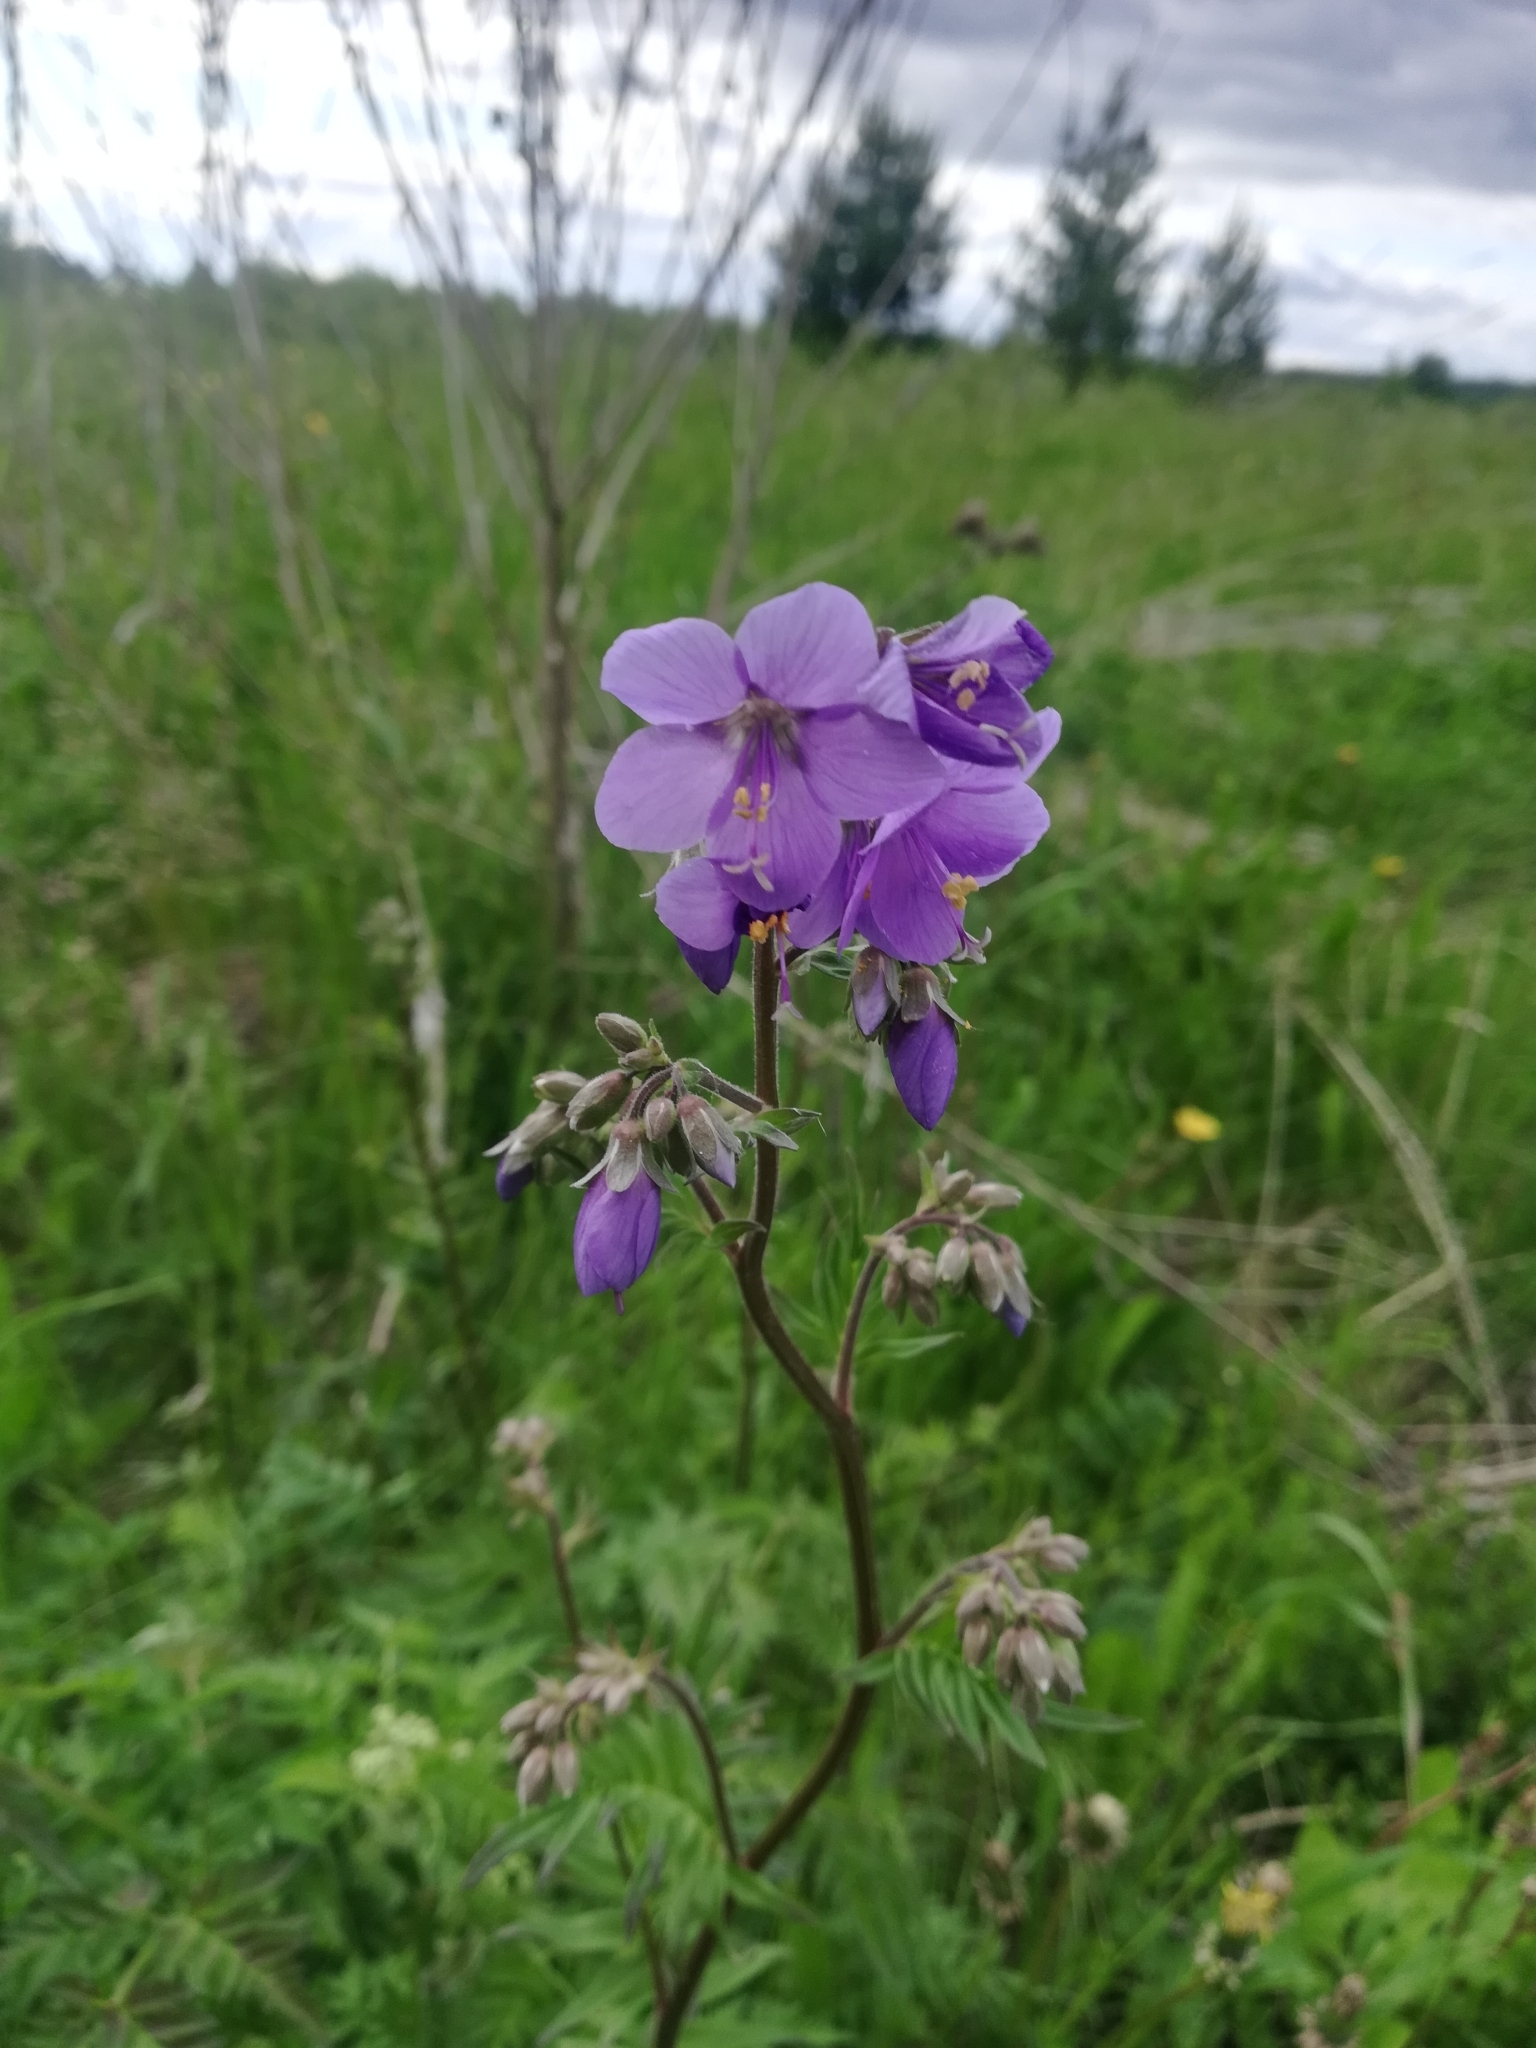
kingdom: Plantae
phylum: Tracheophyta
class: Magnoliopsida
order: Ericales
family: Polemoniaceae
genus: Polemonium
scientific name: Polemonium caeruleum
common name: Jacob's-ladder
